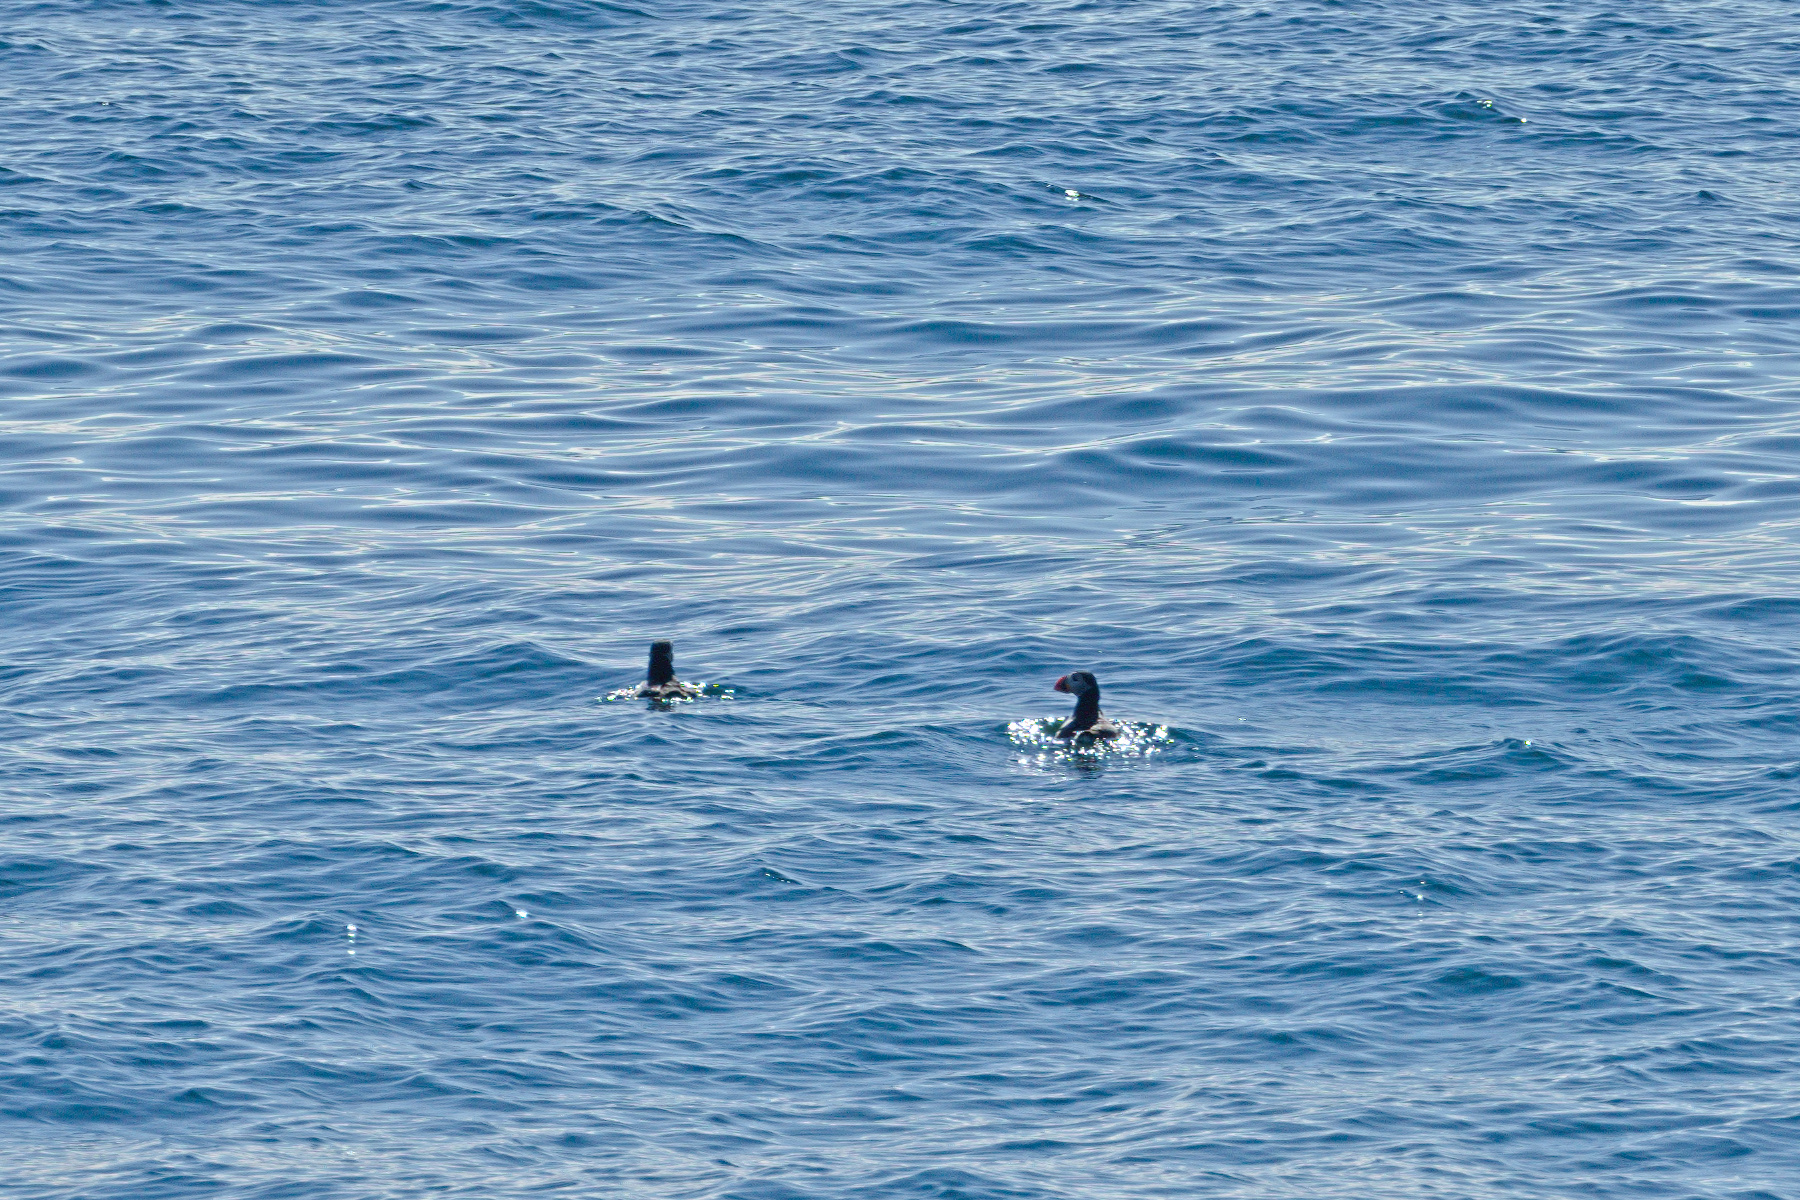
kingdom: Animalia
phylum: Chordata
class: Aves
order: Charadriiformes
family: Alcidae
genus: Fratercula
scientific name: Fratercula arctica
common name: Atlantic puffin
